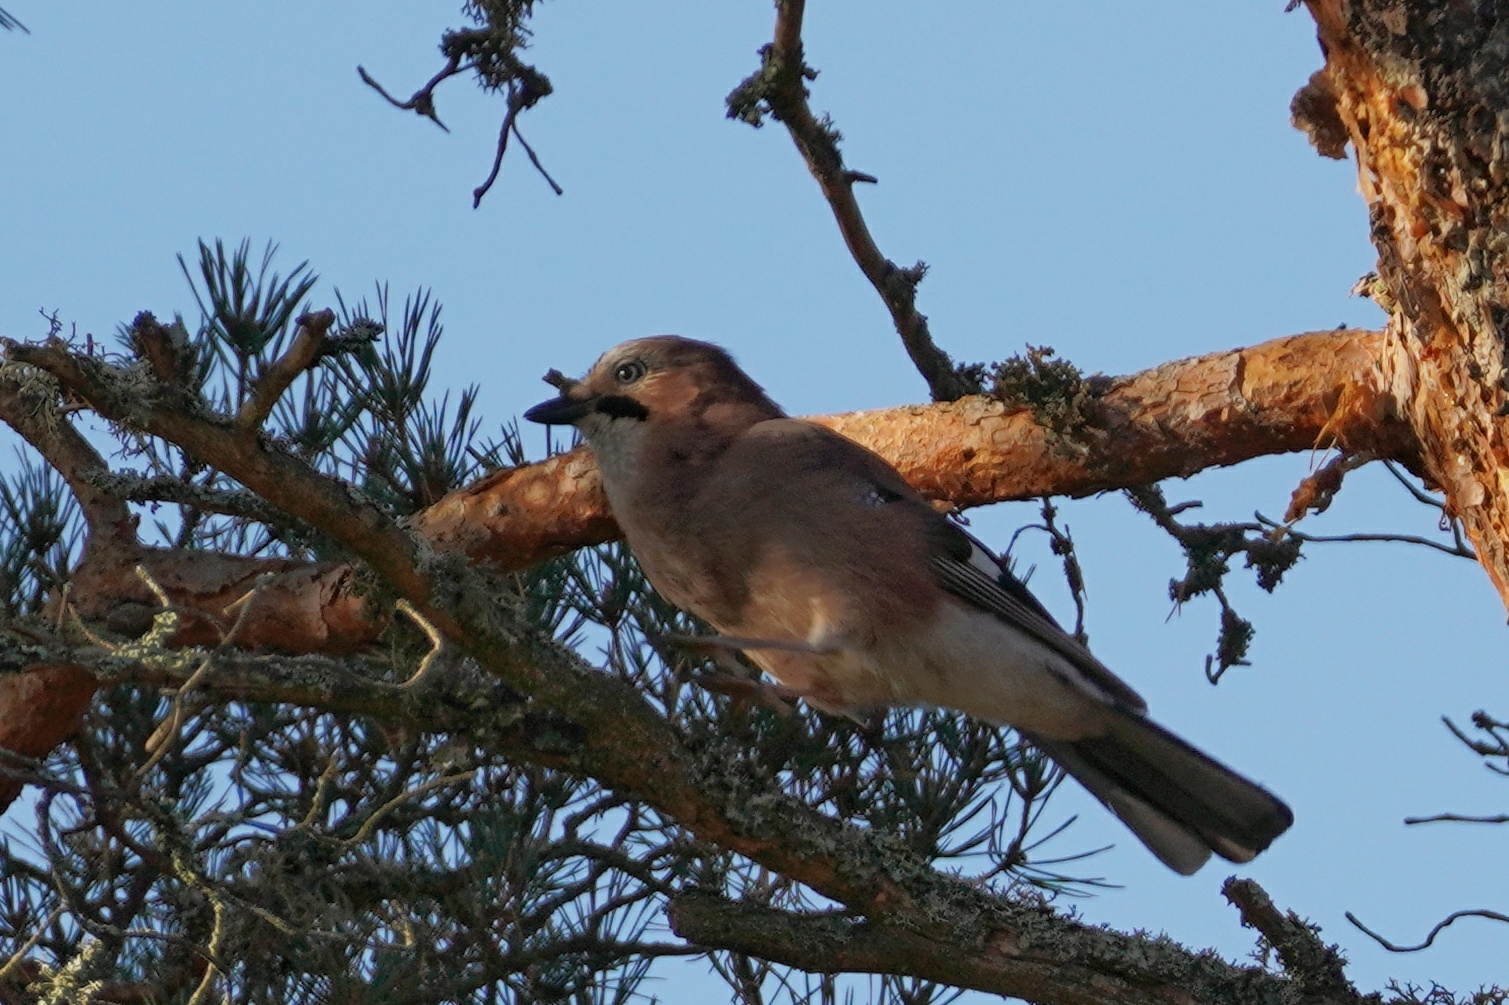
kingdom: Animalia
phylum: Chordata
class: Aves
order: Passeriformes
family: Corvidae
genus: Garrulus
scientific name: Garrulus glandarius
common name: Eurasian jay
